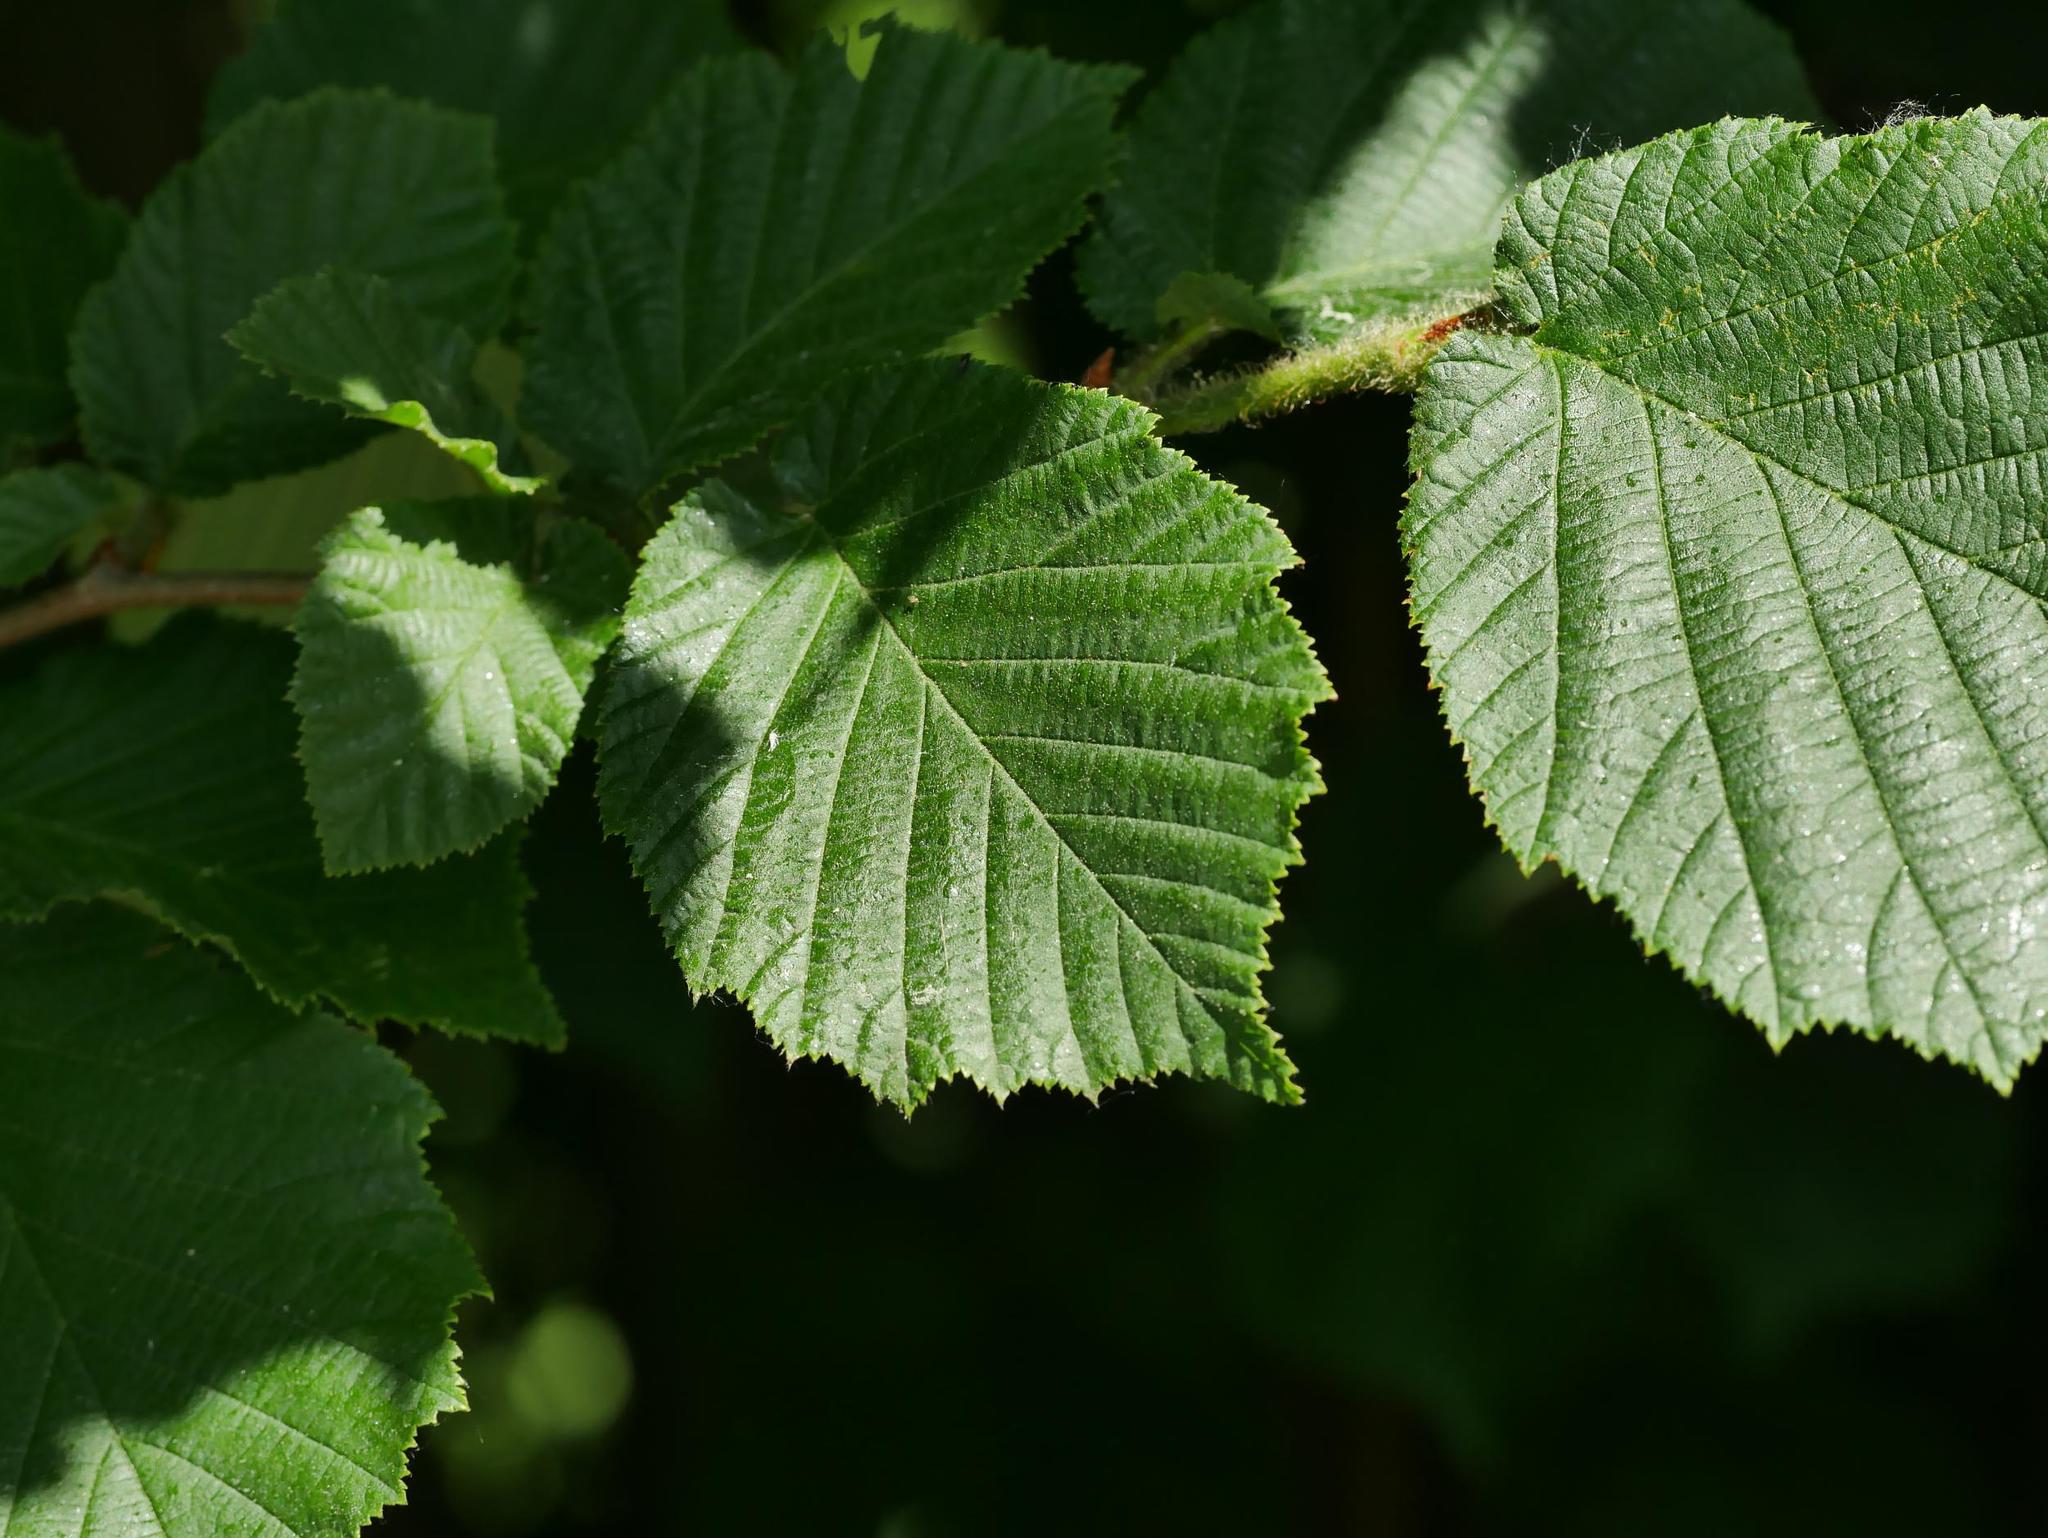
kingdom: Plantae
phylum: Tracheophyta
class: Magnoliopsida
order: Fagales
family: Betulaceae
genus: Corylus
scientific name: Corylus avellana
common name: European hazel
